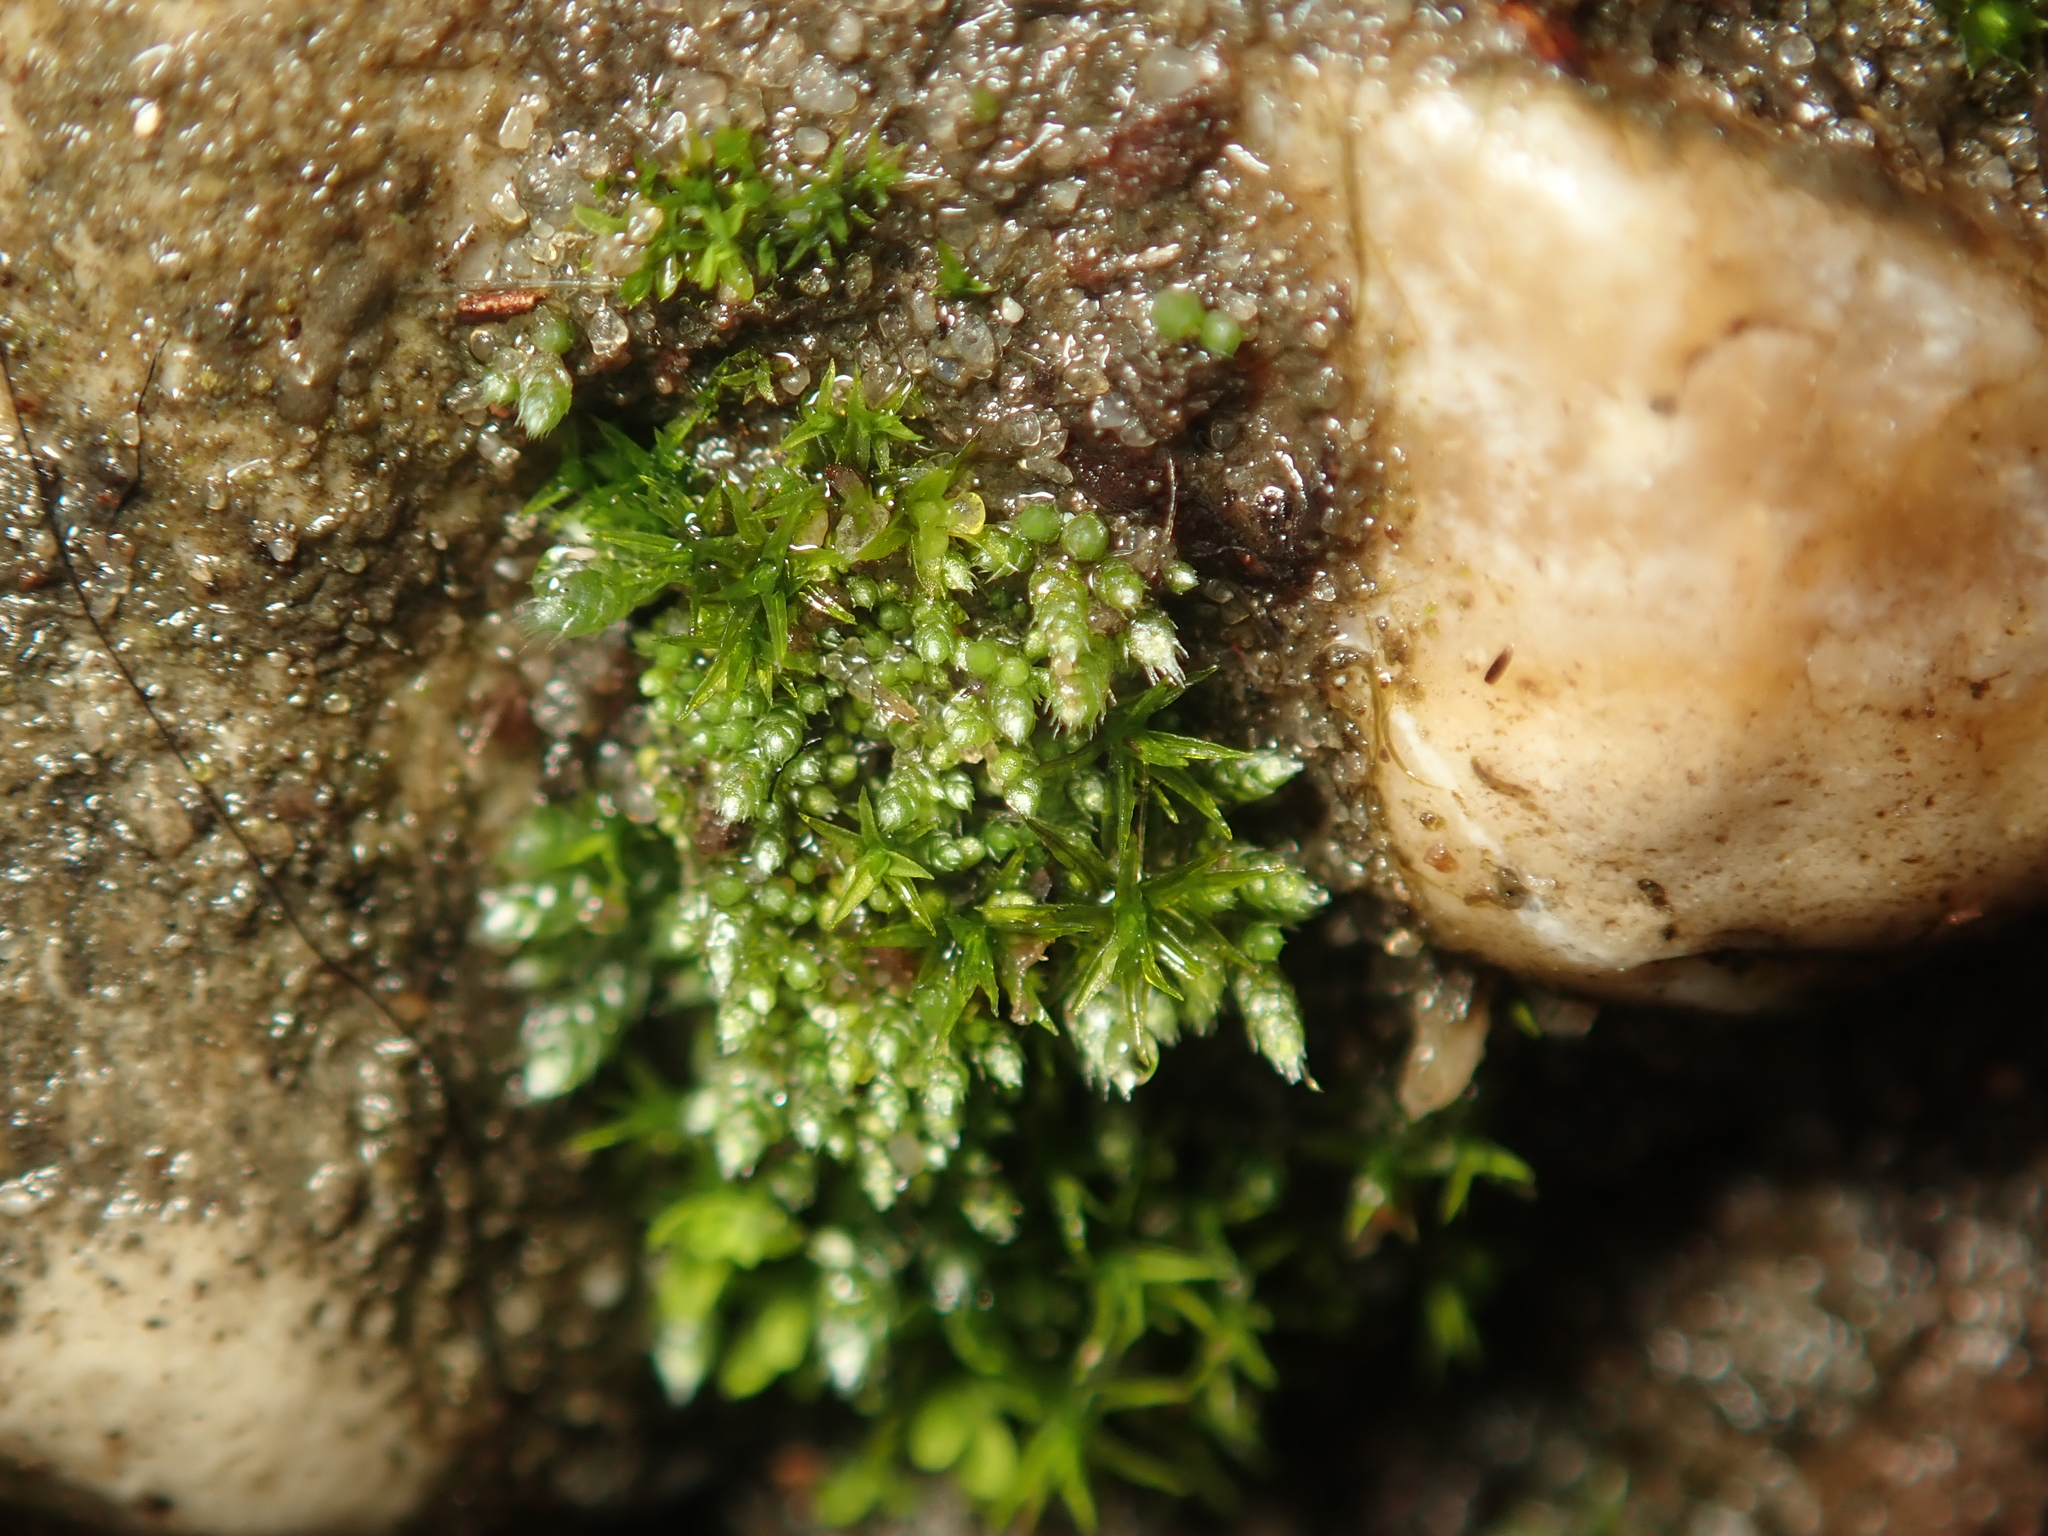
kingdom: Plantae
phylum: Bryophyta
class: Bryopsida
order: Bryales
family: Bryaceae
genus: Bryum
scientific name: Bryum argenteum
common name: Silver-moss
